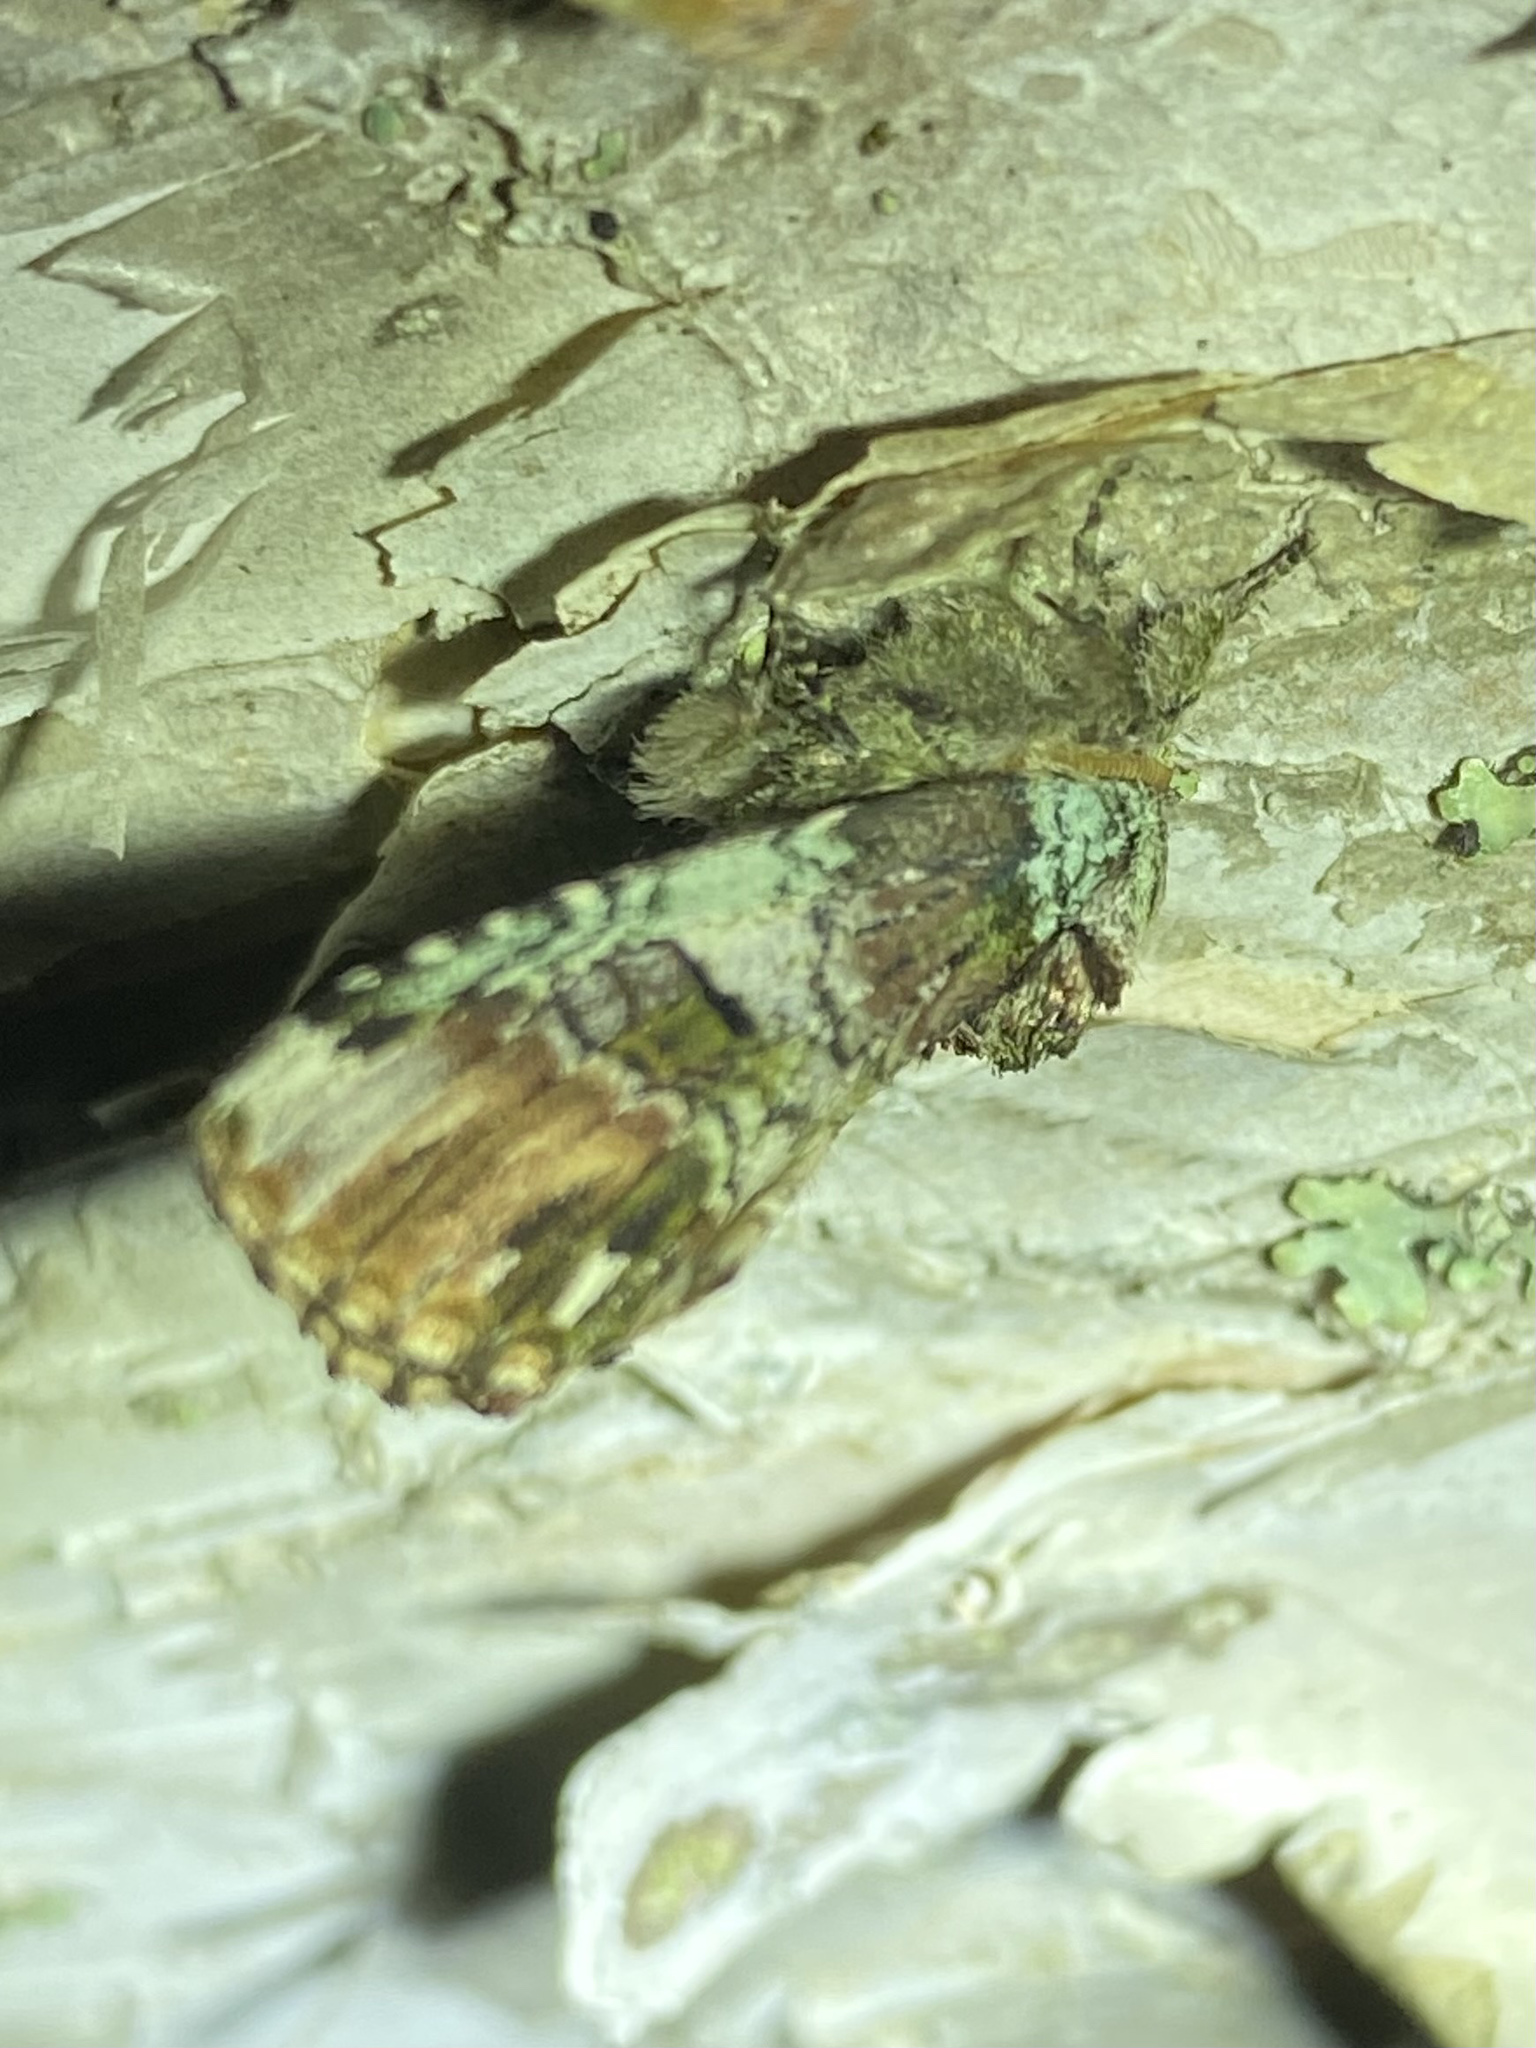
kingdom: Animalia
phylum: Arthropoda
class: Insecta
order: Lepidoptera
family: Notodontidae
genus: Schizura
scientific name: Schizura
